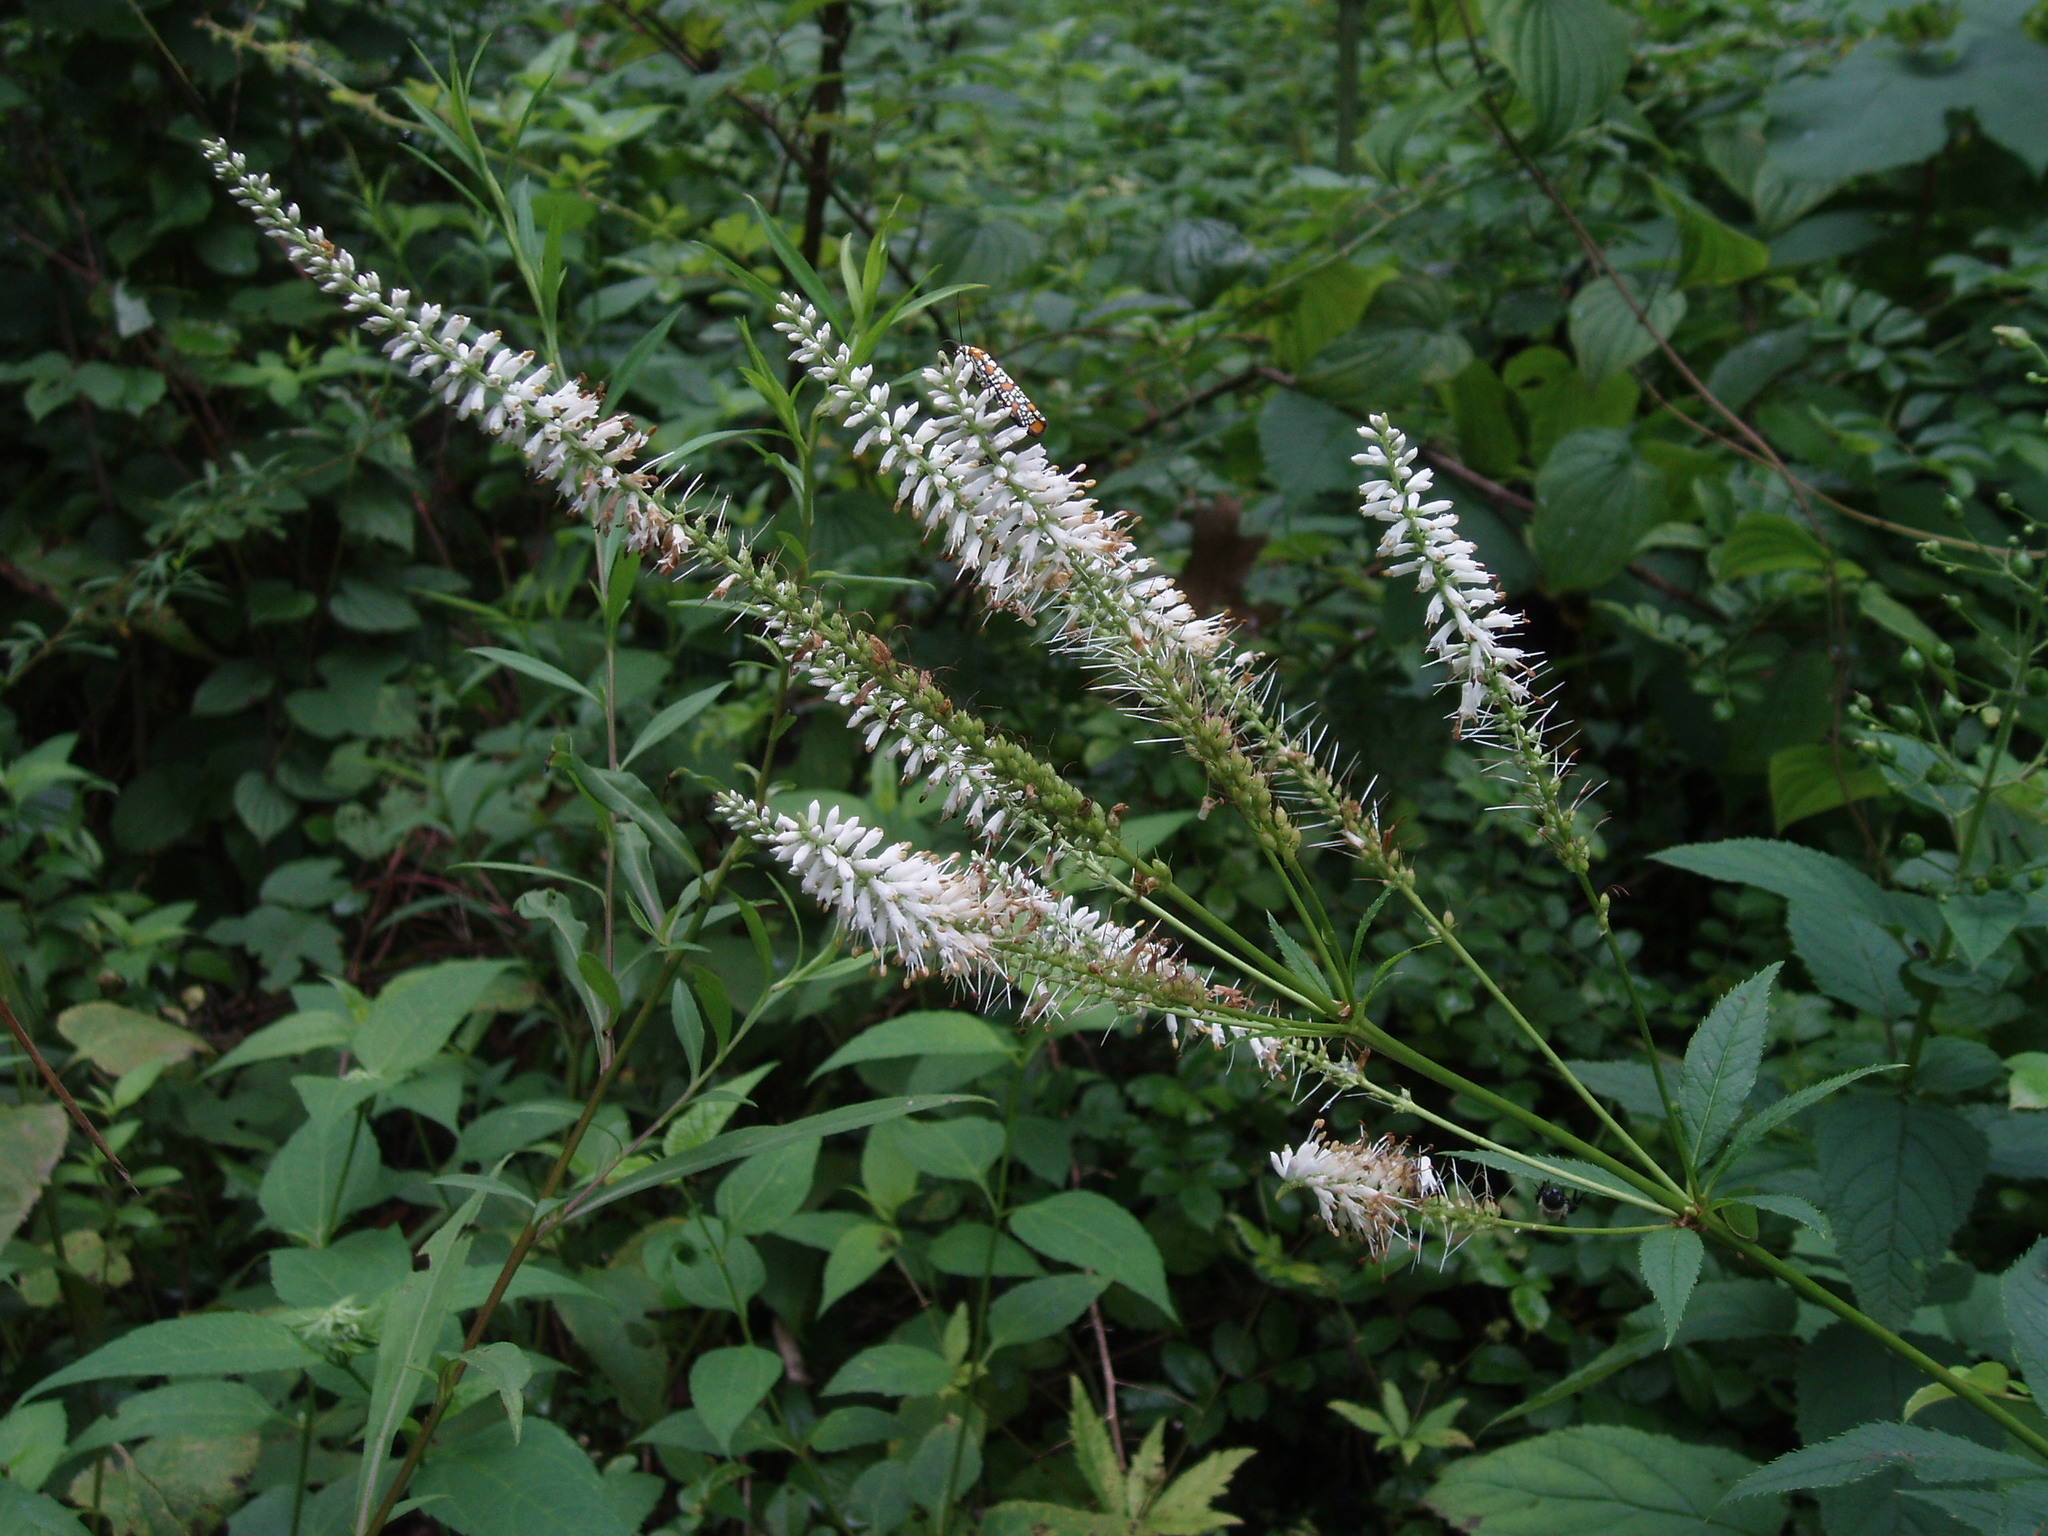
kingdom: Plantae
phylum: Tracheophyta
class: Magnoliopsida
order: Lamiales
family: Plantaginaceae
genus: Veronicastrum
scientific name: Veronicastrum virginicum
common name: Blackroot
